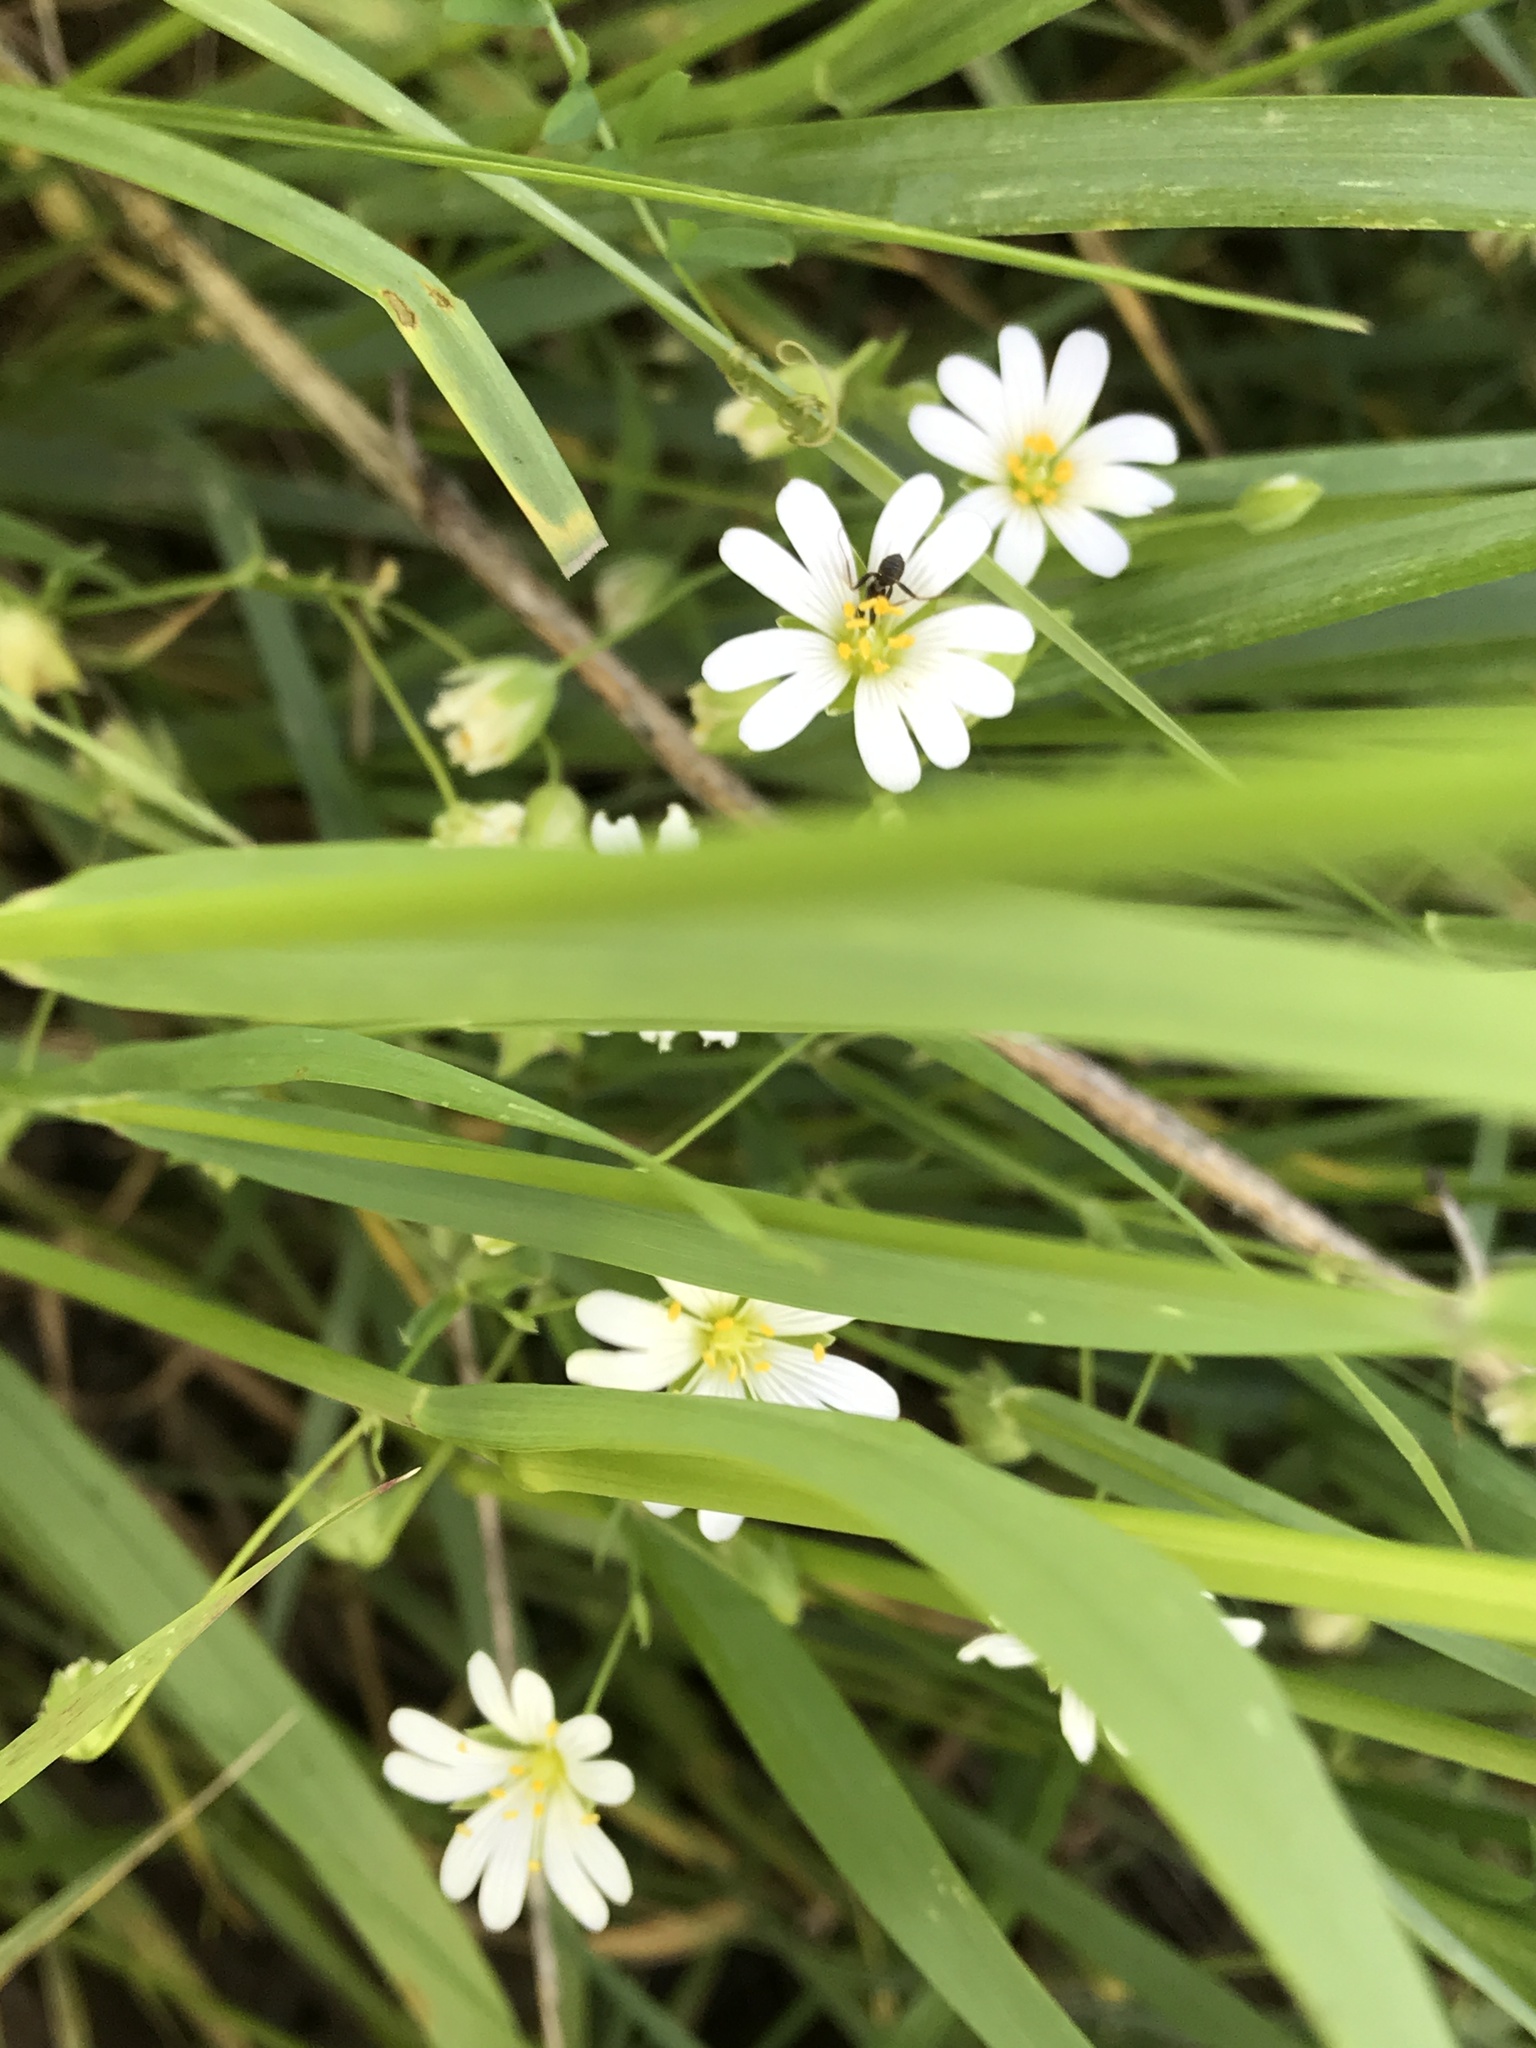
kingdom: Plantae
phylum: Tracheophyta
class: Magnoliopsida
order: Caryophyllales
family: Caryophyllaceae
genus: Rabelera
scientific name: Rabelera holostea
